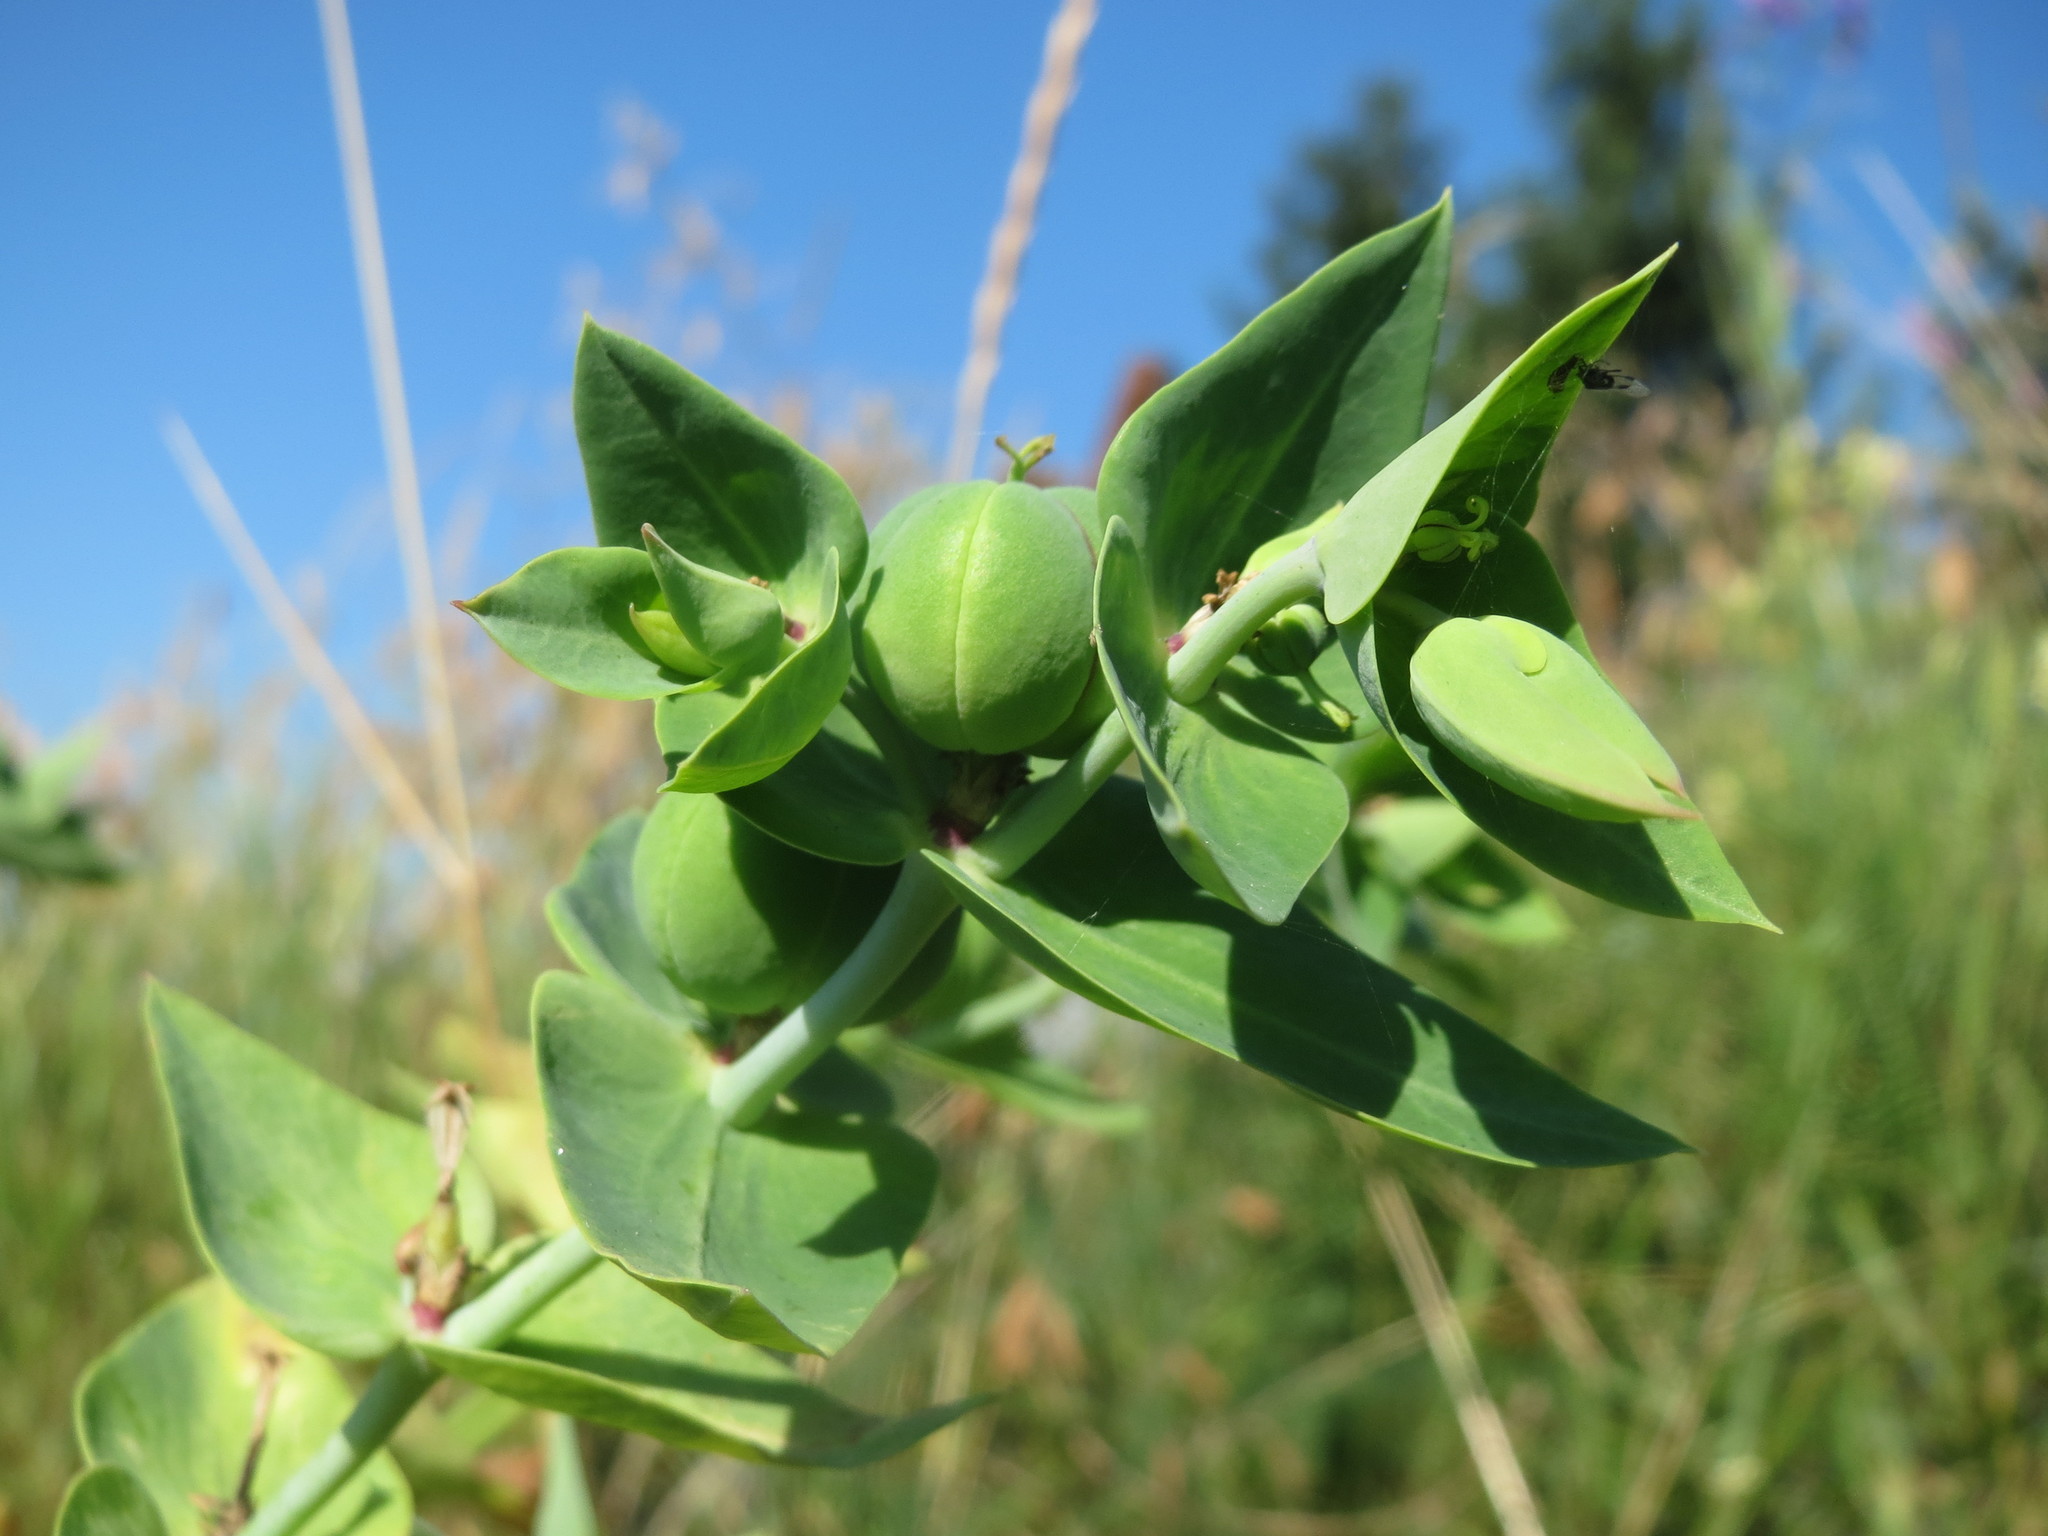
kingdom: Plantae
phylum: Tracheophyta
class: Magnoliopsida
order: Malpighiales
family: Euphorbiaceae
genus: Euphorbia
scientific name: Euphorbia lathyris
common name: Caper spurge
